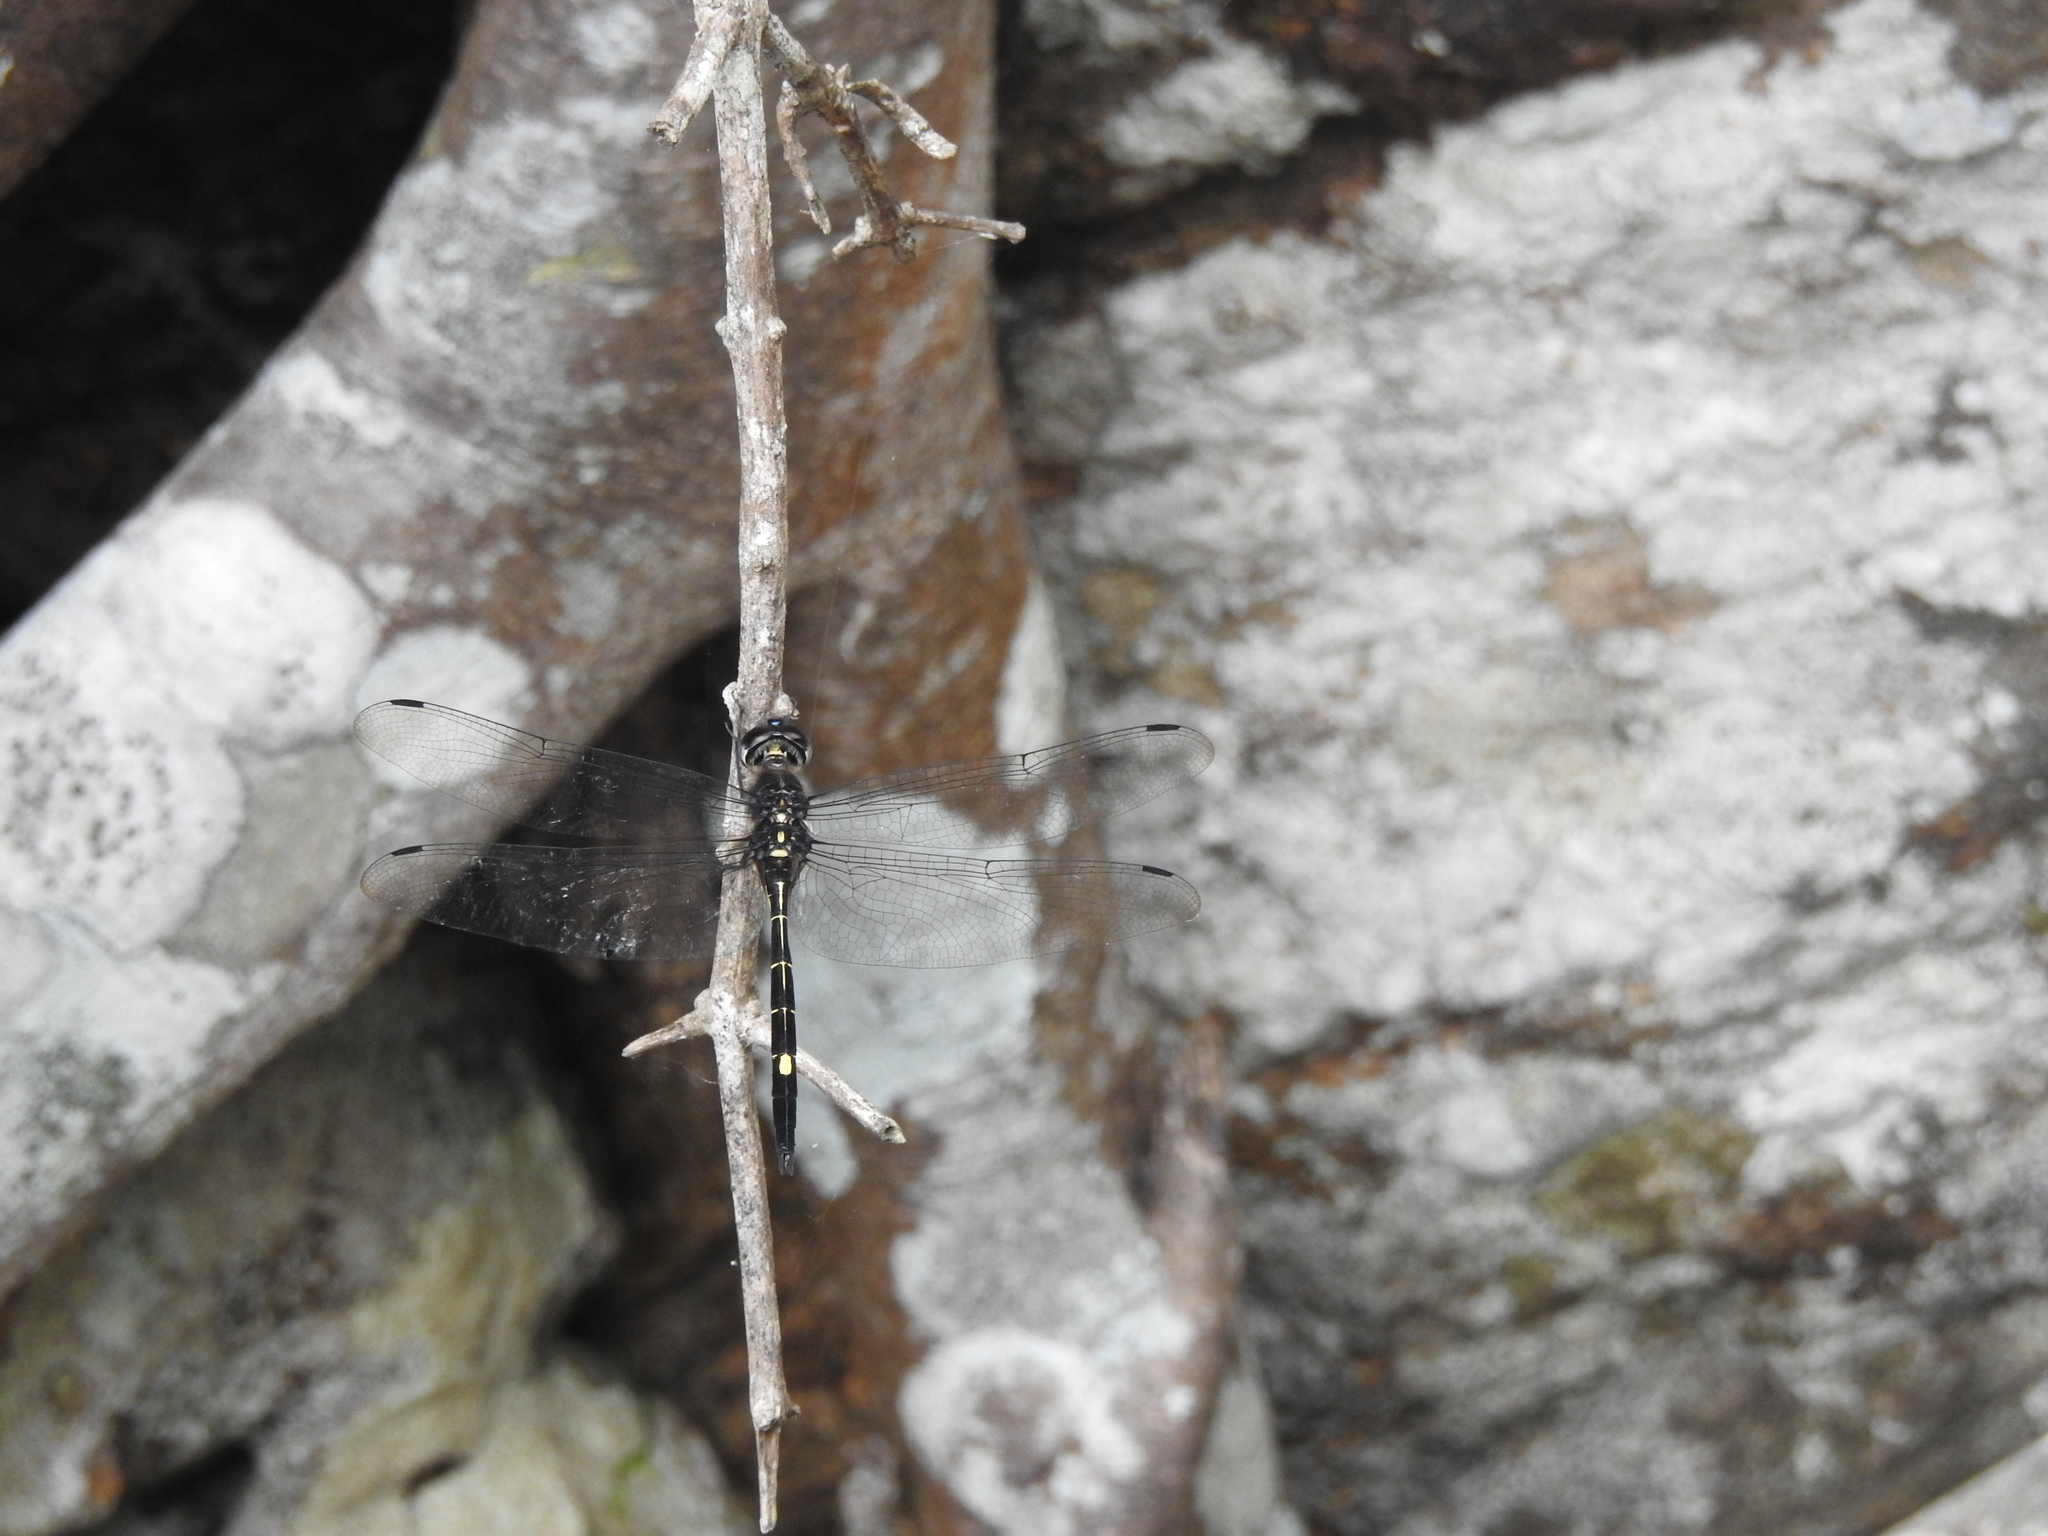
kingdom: Animalia
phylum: Arthropoda
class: Insecta
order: Odonata
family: Libellulidae
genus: Zygonyx
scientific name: Zygonyx iris
